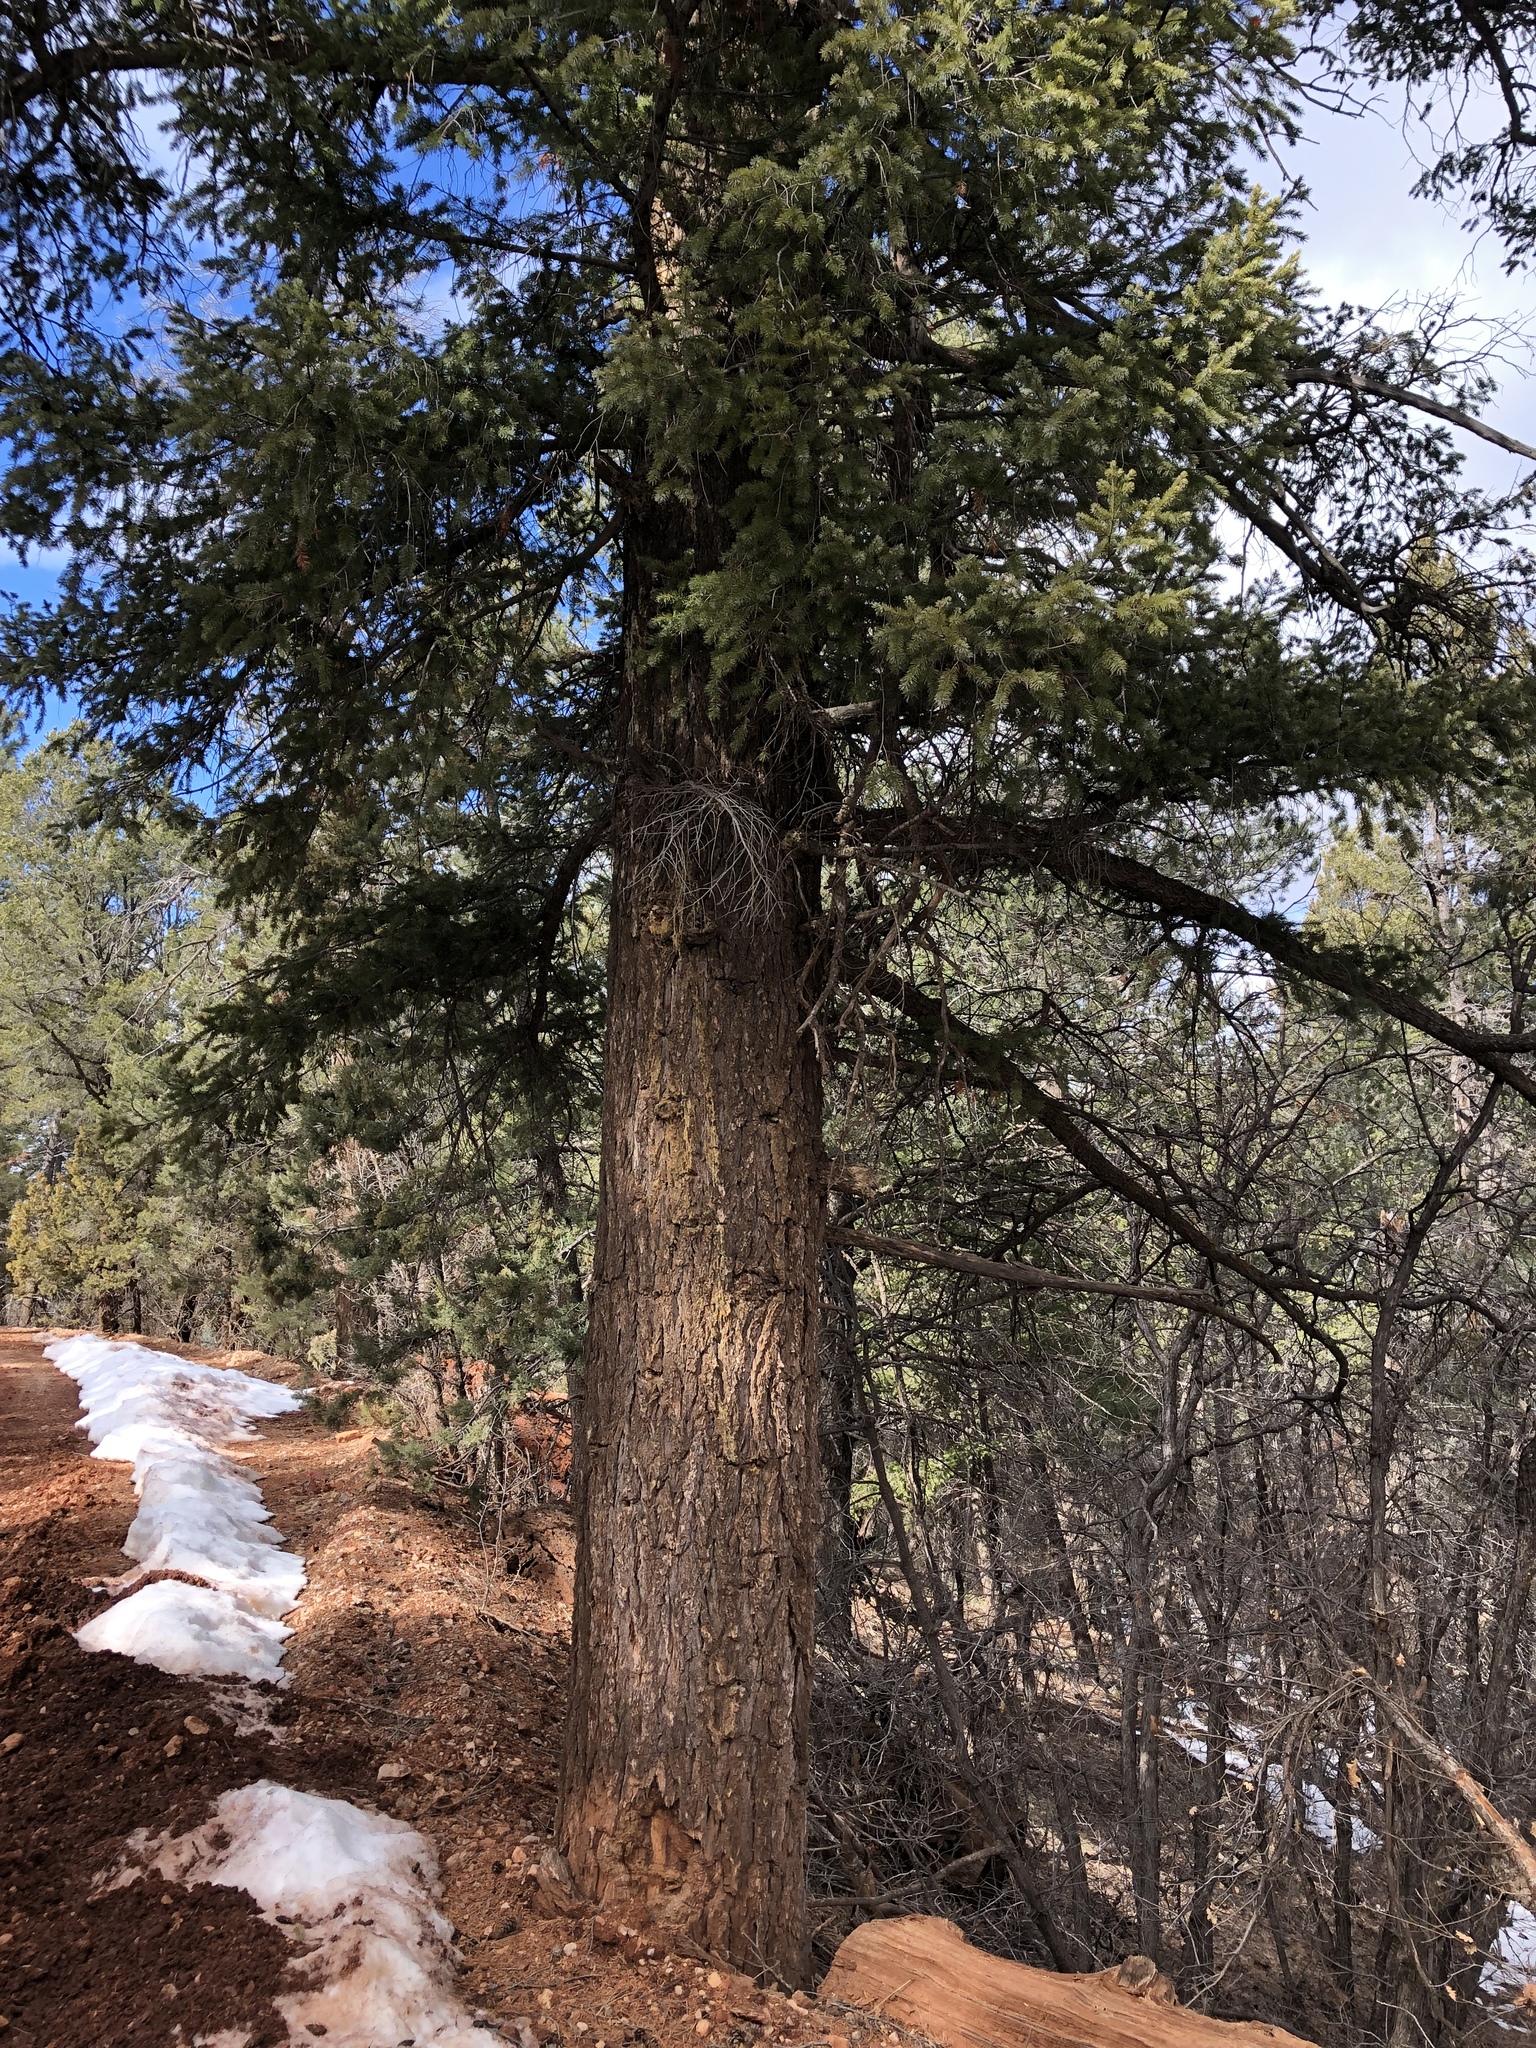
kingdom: Plantae
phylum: Tracheophyta
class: Pinopsida
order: Pinales
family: Pinaceae
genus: Pseudotsuga
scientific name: Pseudotsuga menziesii
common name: Douglas fir
